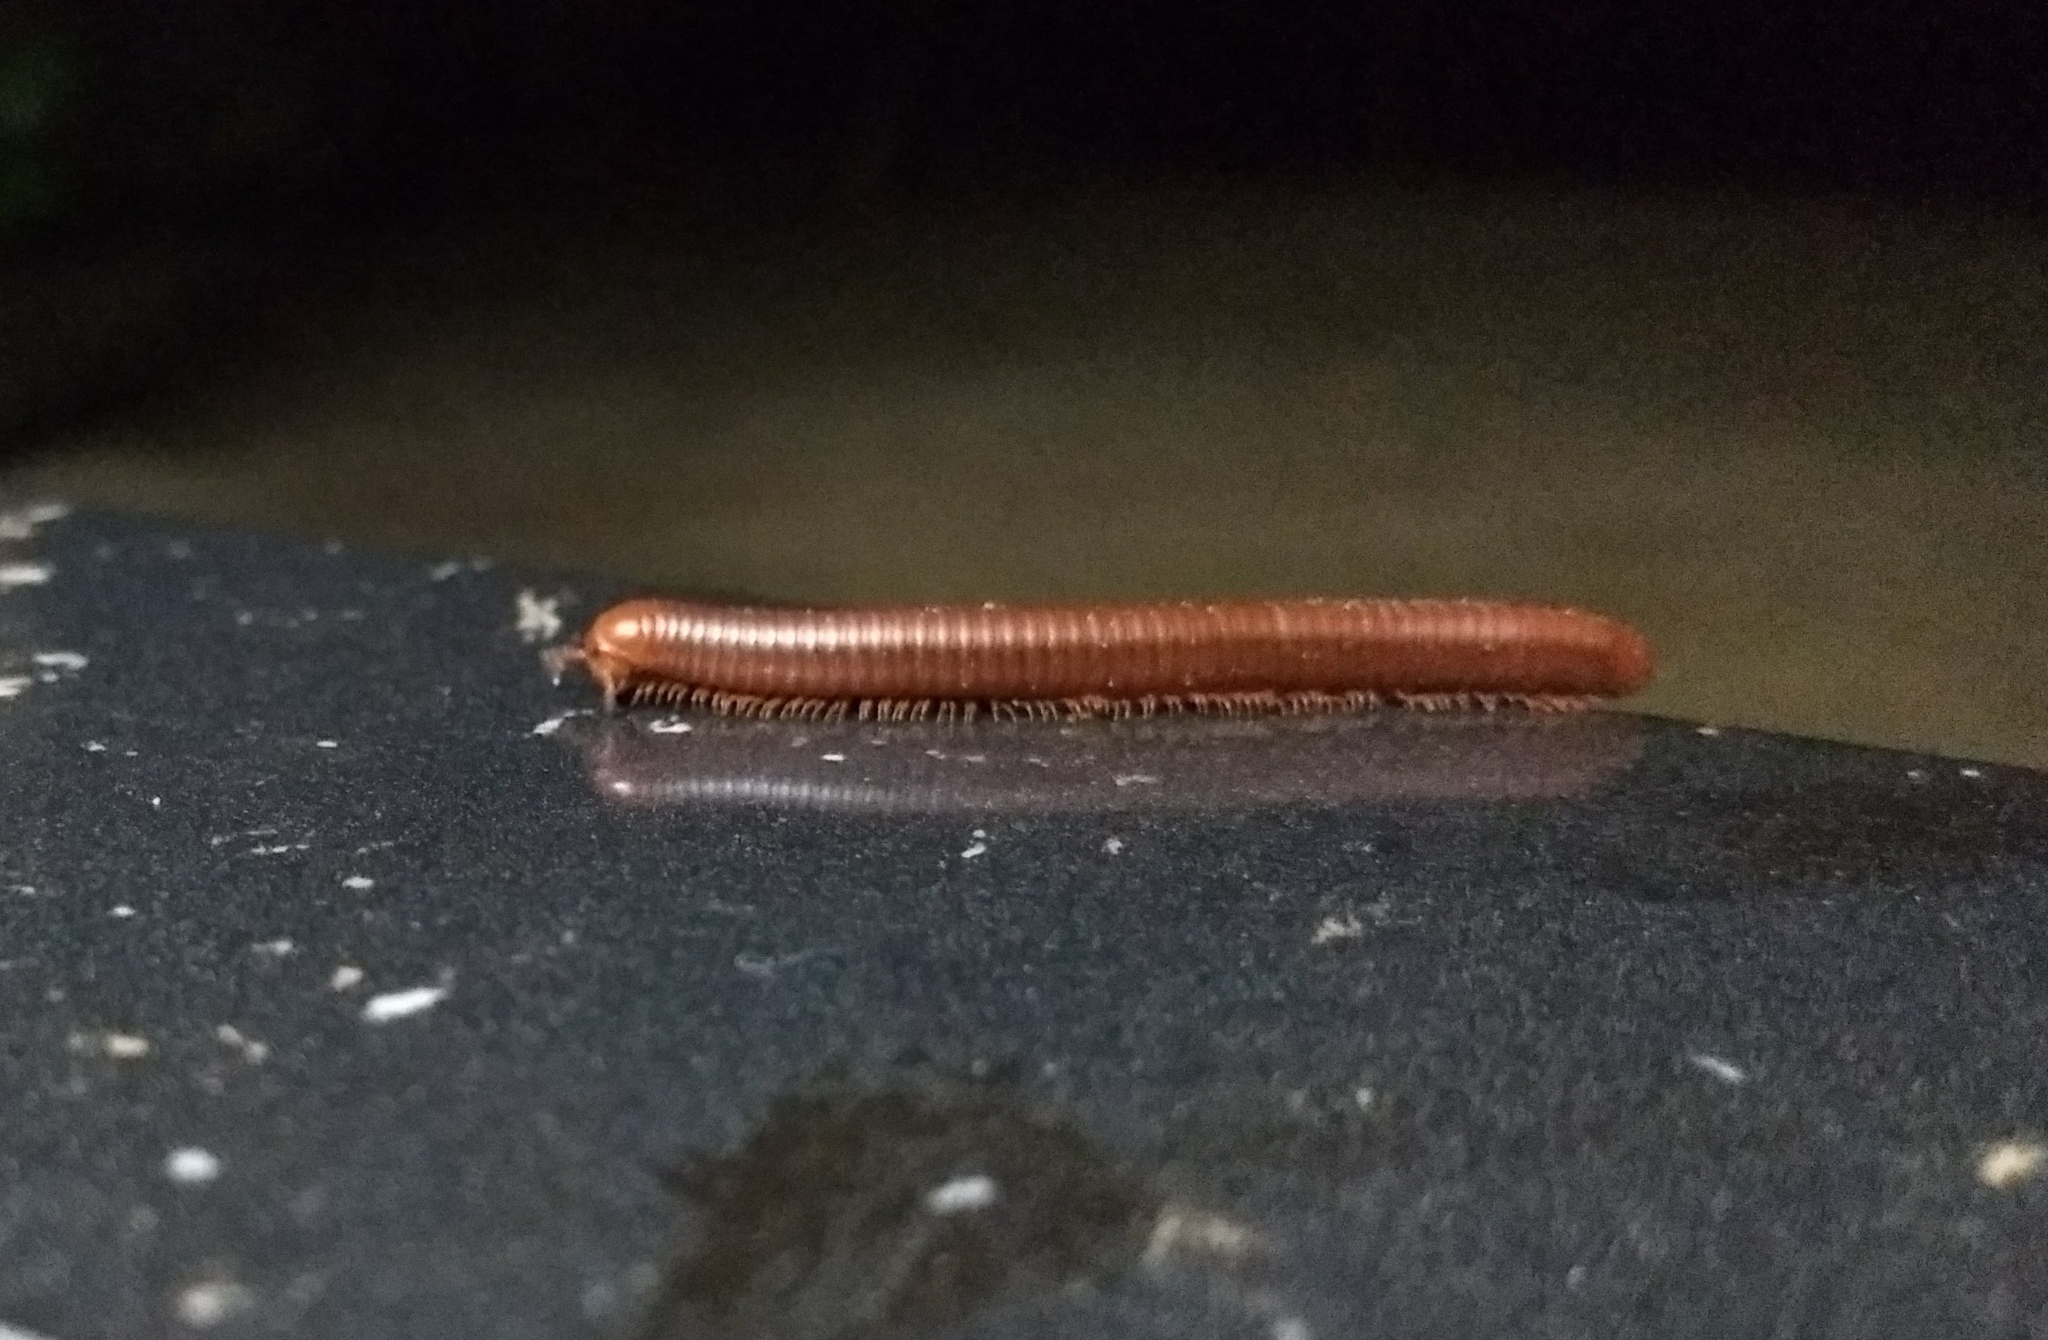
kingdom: Animalia
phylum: Arthropoda
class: Diplopoda
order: Spirobolida
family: Pachybolidae
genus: Trigoniulus
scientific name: Trigoniulus corallinus
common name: Millipede
